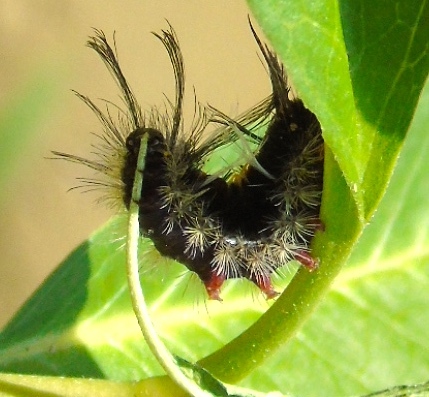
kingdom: Animalia
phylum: Arthropoda
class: Insecta
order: Lepidoptera
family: Erebidae
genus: Euchaetes
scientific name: Euchaetes
